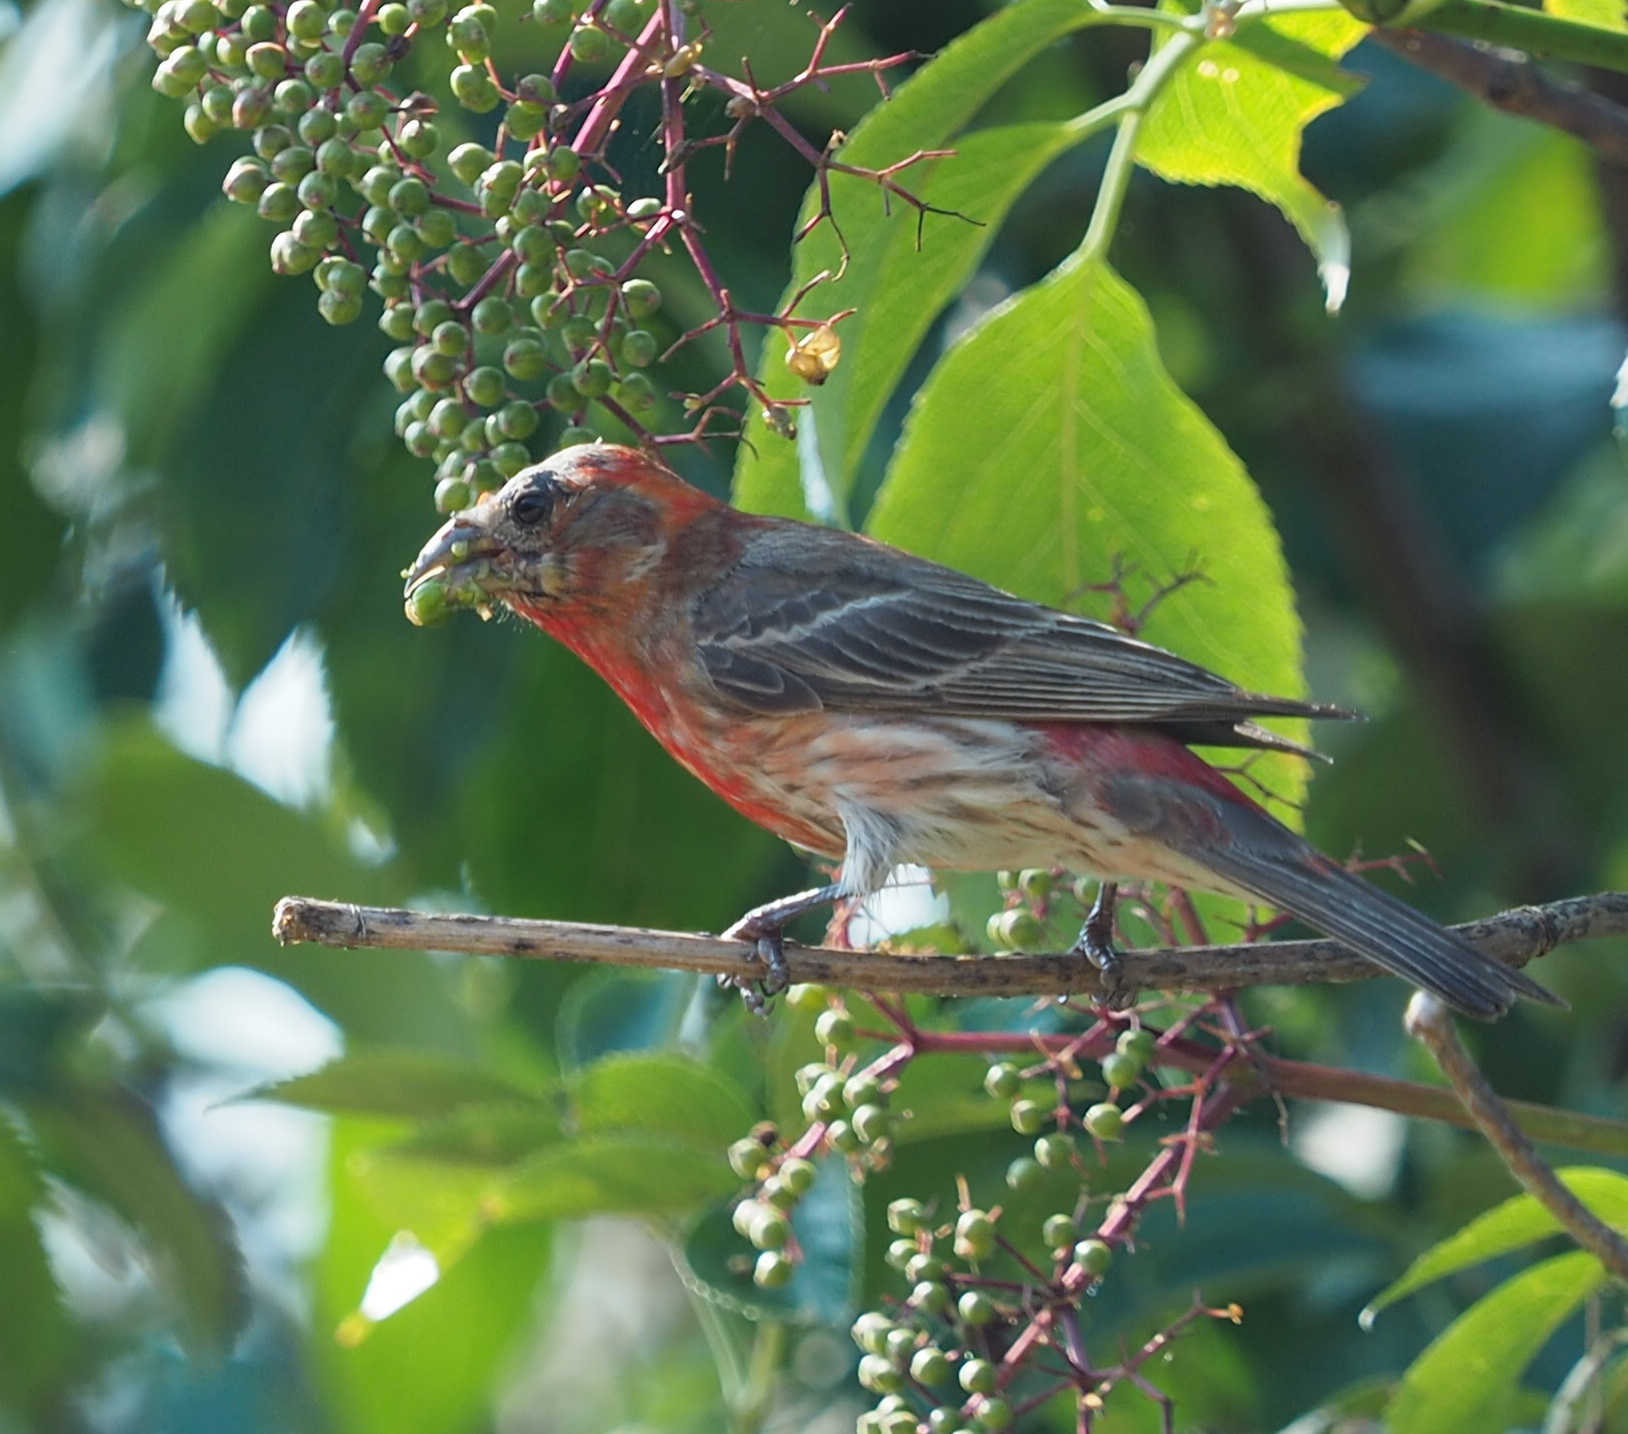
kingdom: Animalia
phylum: Chordata
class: Aves
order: Passeriformes
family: Fringillidae
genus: Haemorhous
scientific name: Haemorhous mexicanus
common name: House finch
